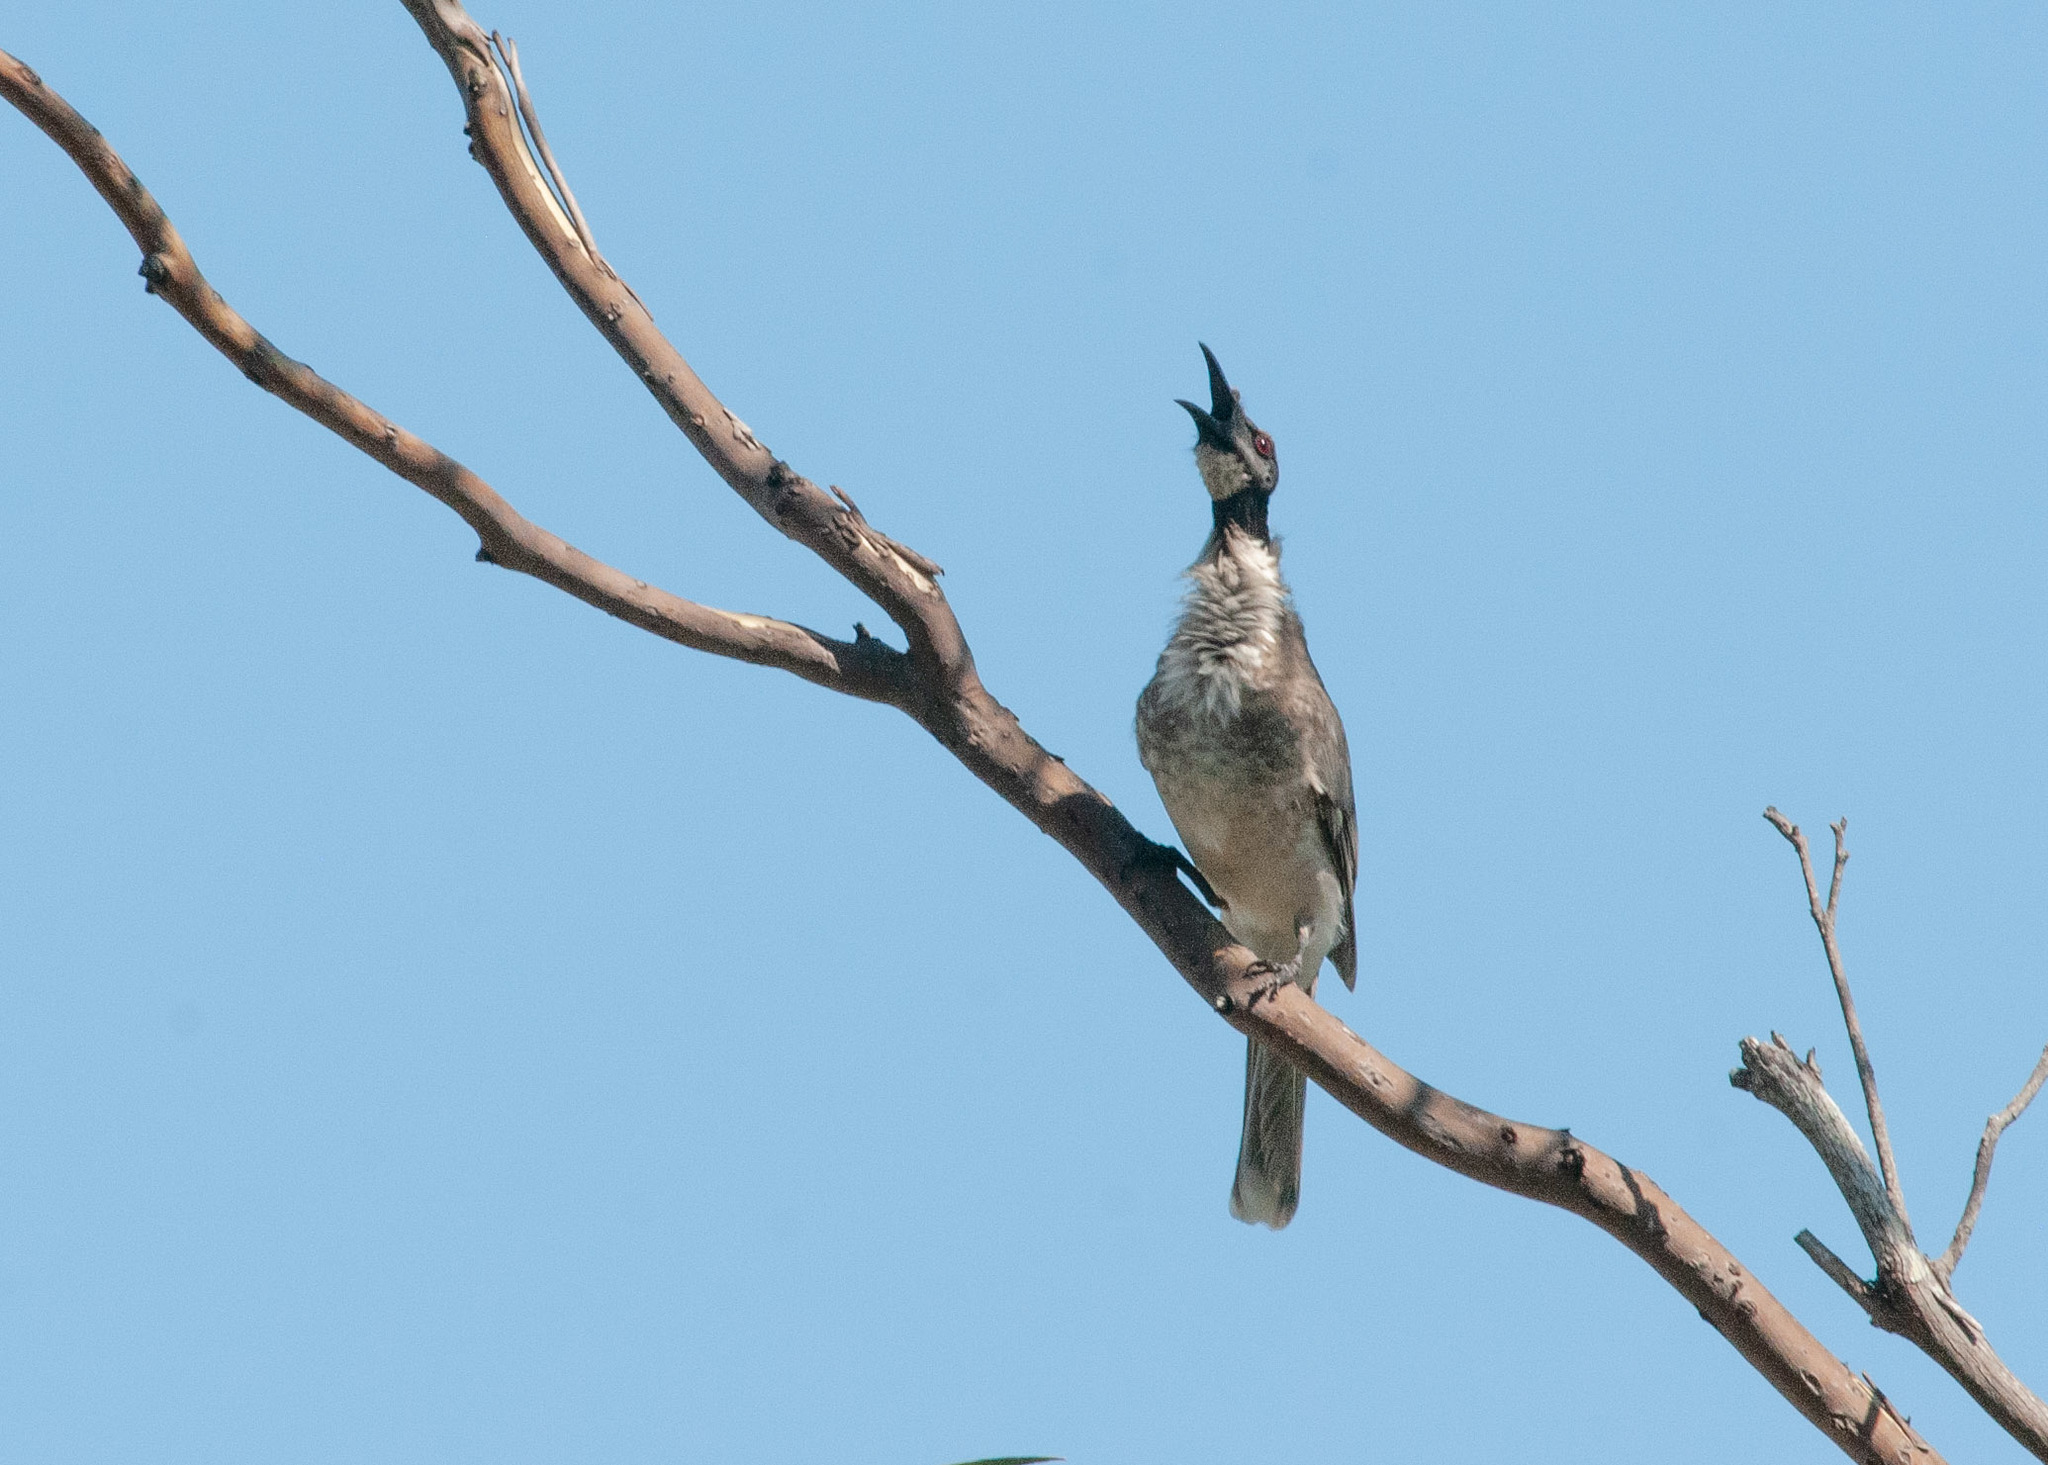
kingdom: Animalia
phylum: Chordata
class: Aves
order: Passeriformes
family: Meliphagidae
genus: Philemon
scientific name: Philemon corniculatus
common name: Noisy friarbird
